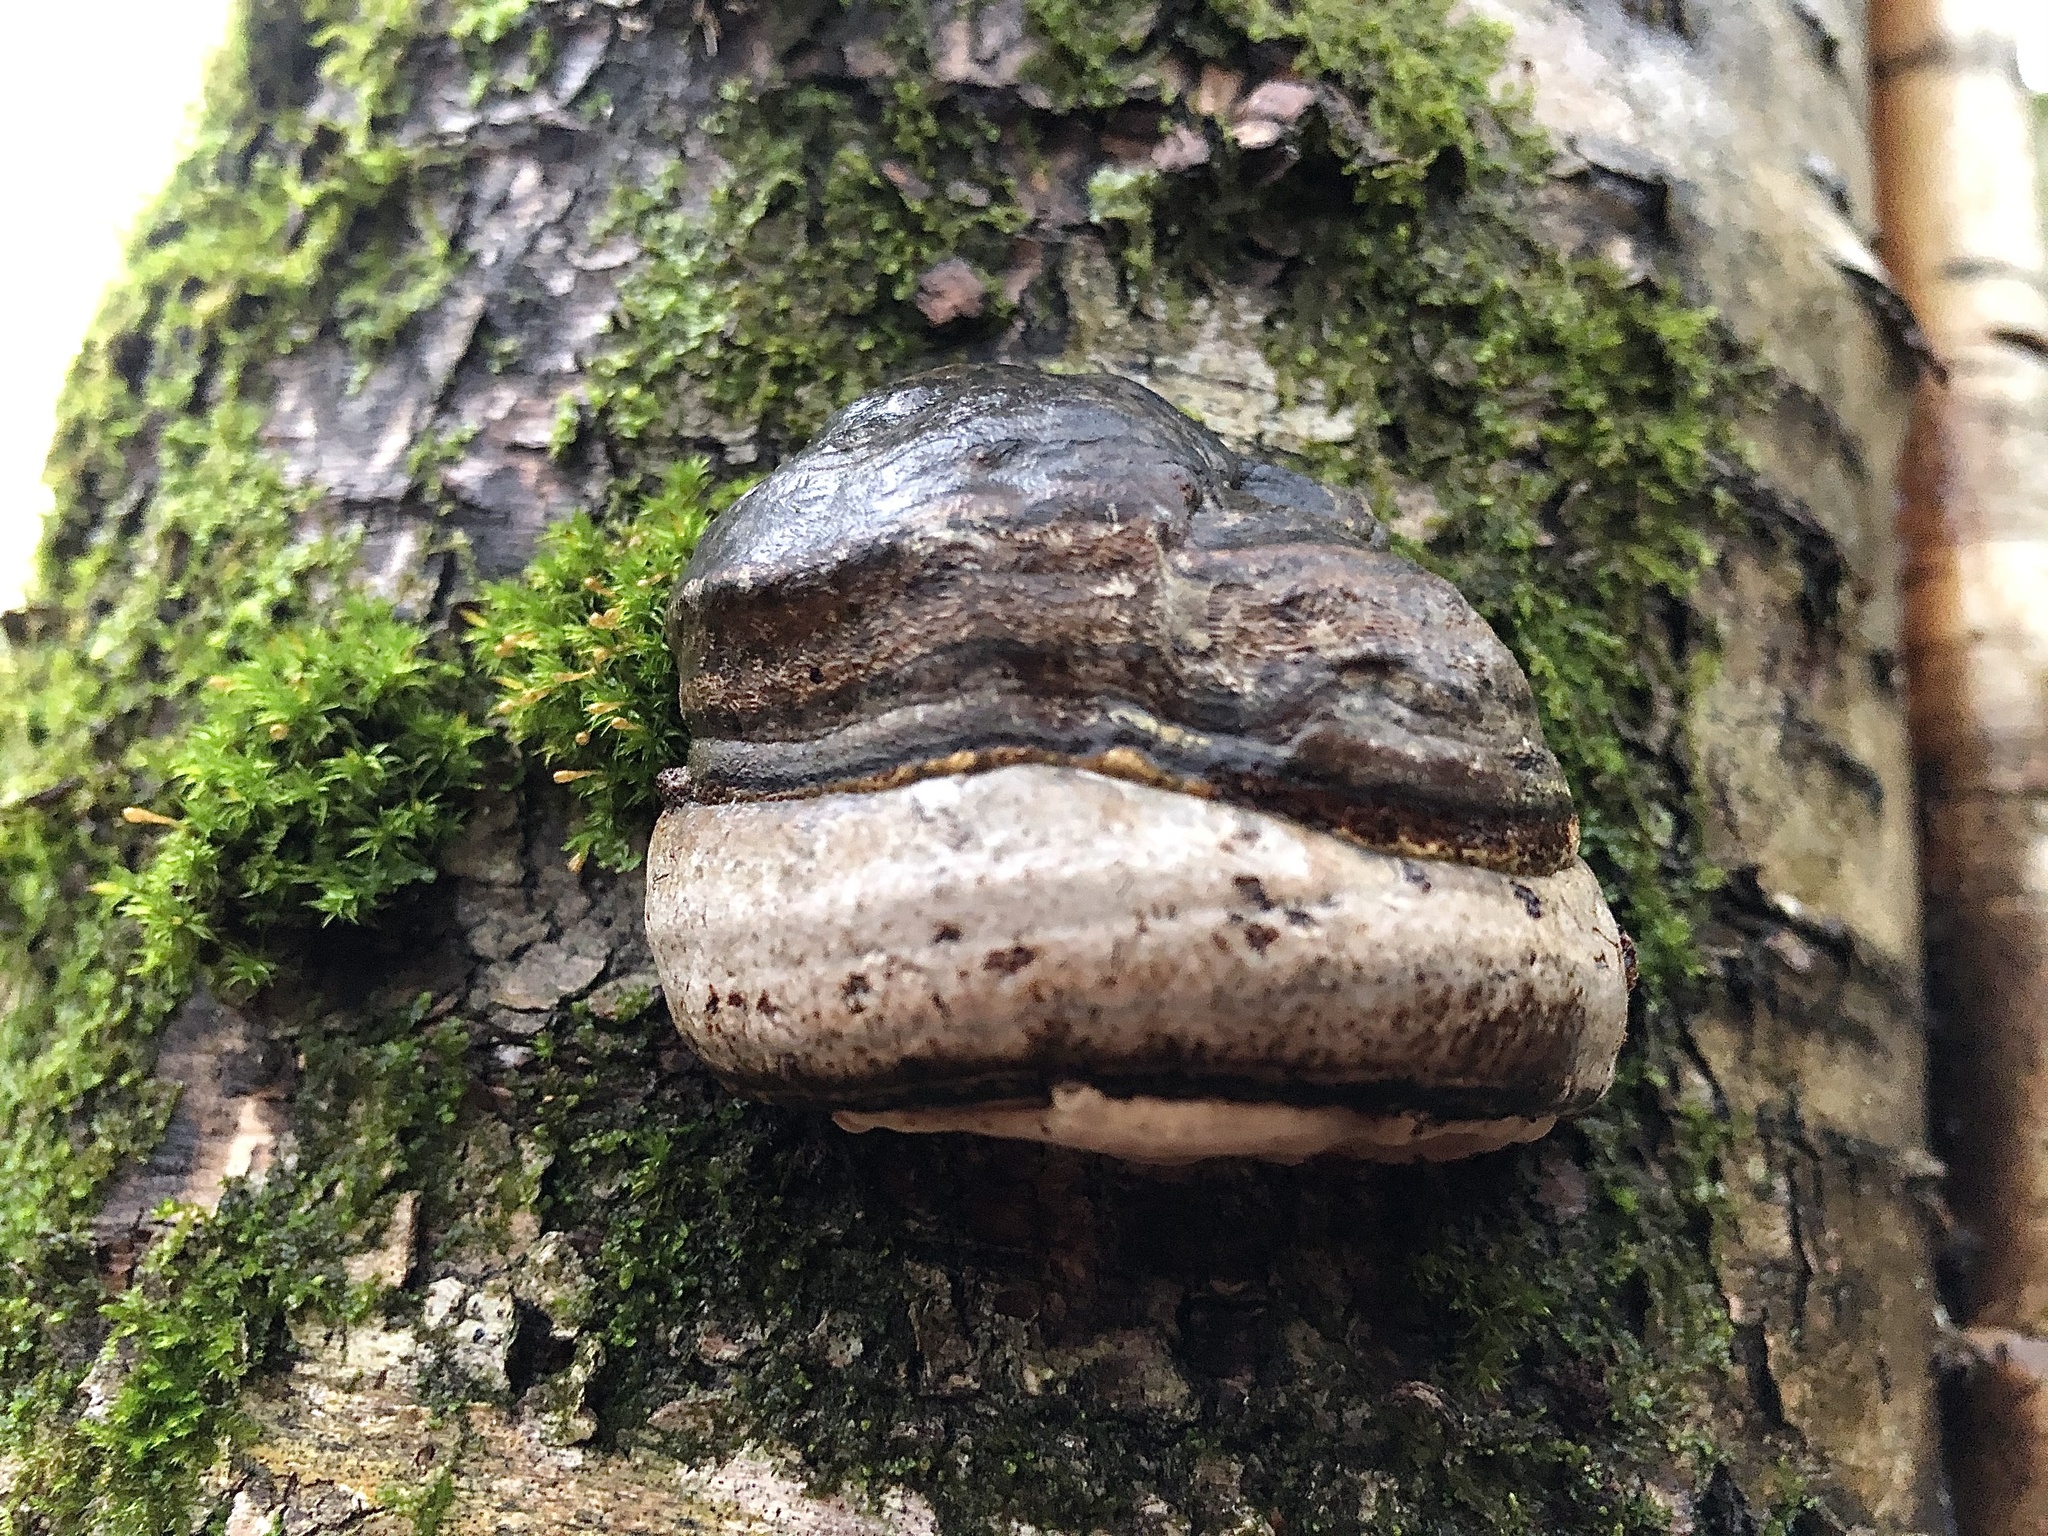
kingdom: Fungi
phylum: Basidiomycota
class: Agaricomycetes
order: Polyporales
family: Polyporaceae
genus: Fomes
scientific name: Fomes fomentarius
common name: Hoof fungus
